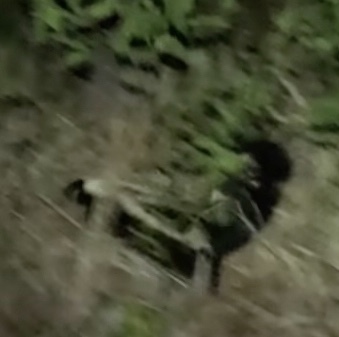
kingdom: Animalia
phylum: Chordata
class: Mammalia
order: Carnivora
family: Mephitidae
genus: Mephitis
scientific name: Mephitis mephitis
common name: Striped skunk
